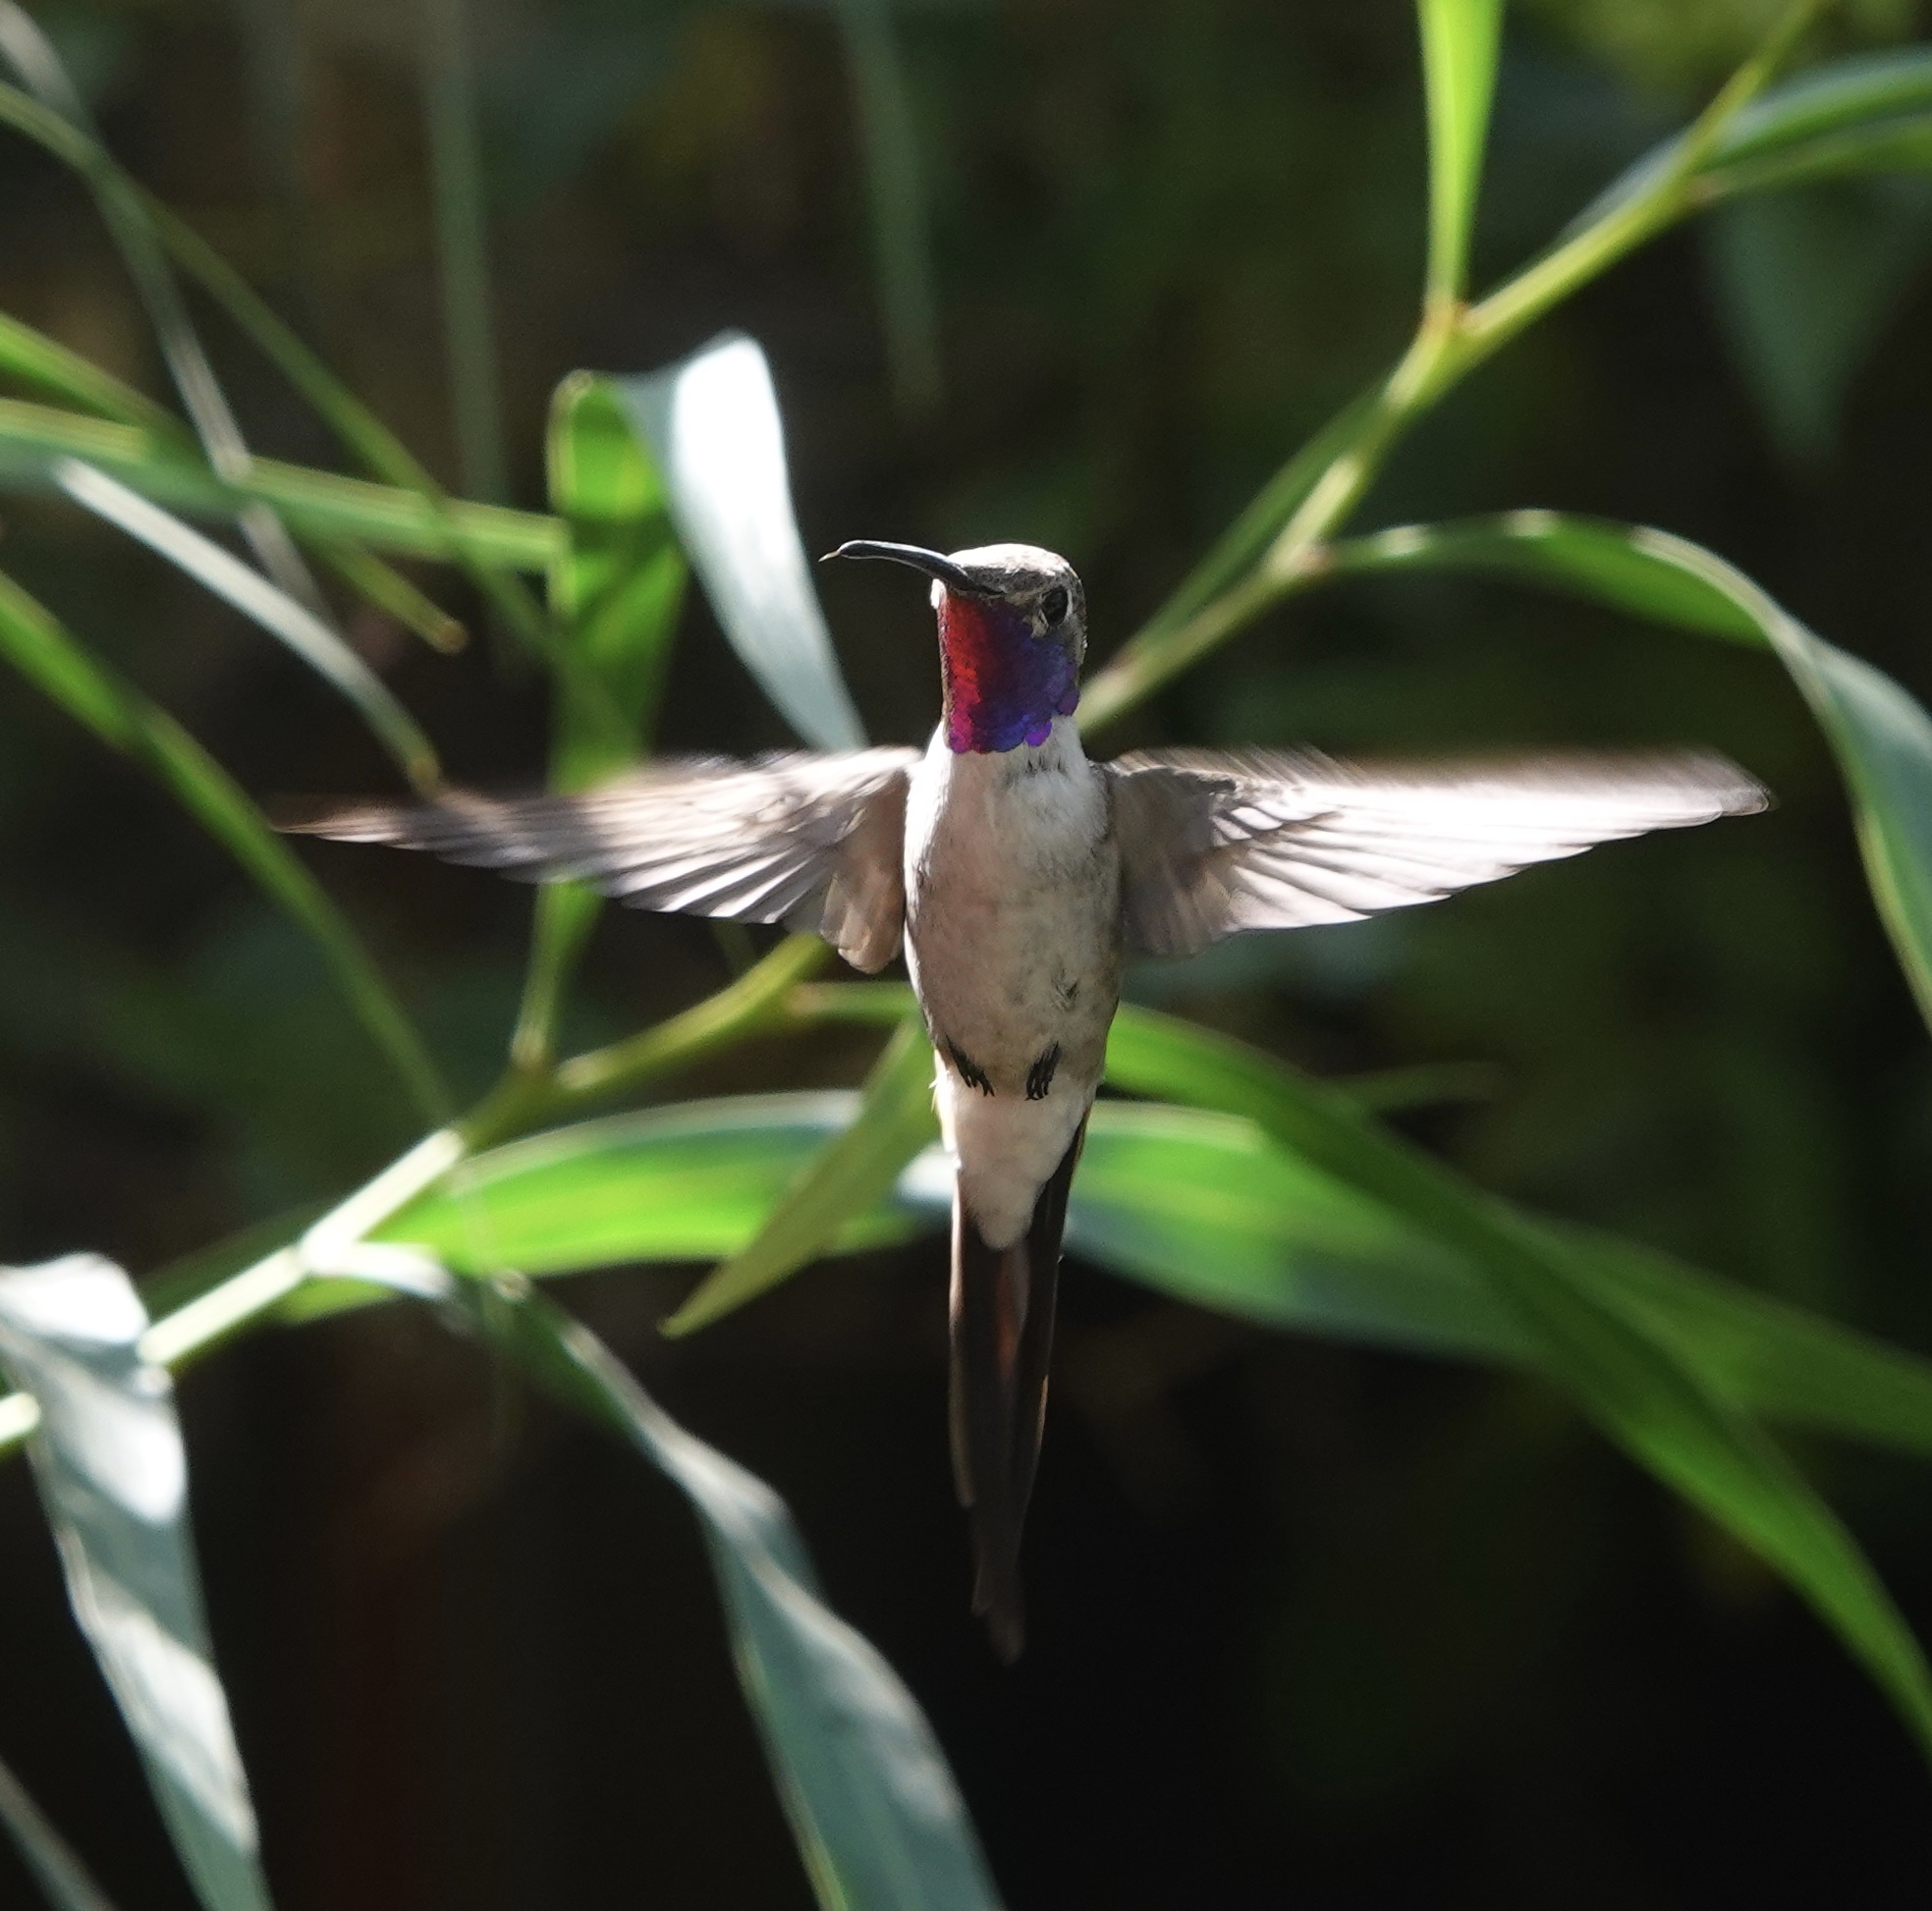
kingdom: Animalia
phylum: Chordata
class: Aves
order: Apodiformes
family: Trochilidae
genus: Rhodopis
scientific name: Rhodopis vesper
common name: Oasis hummingbird
